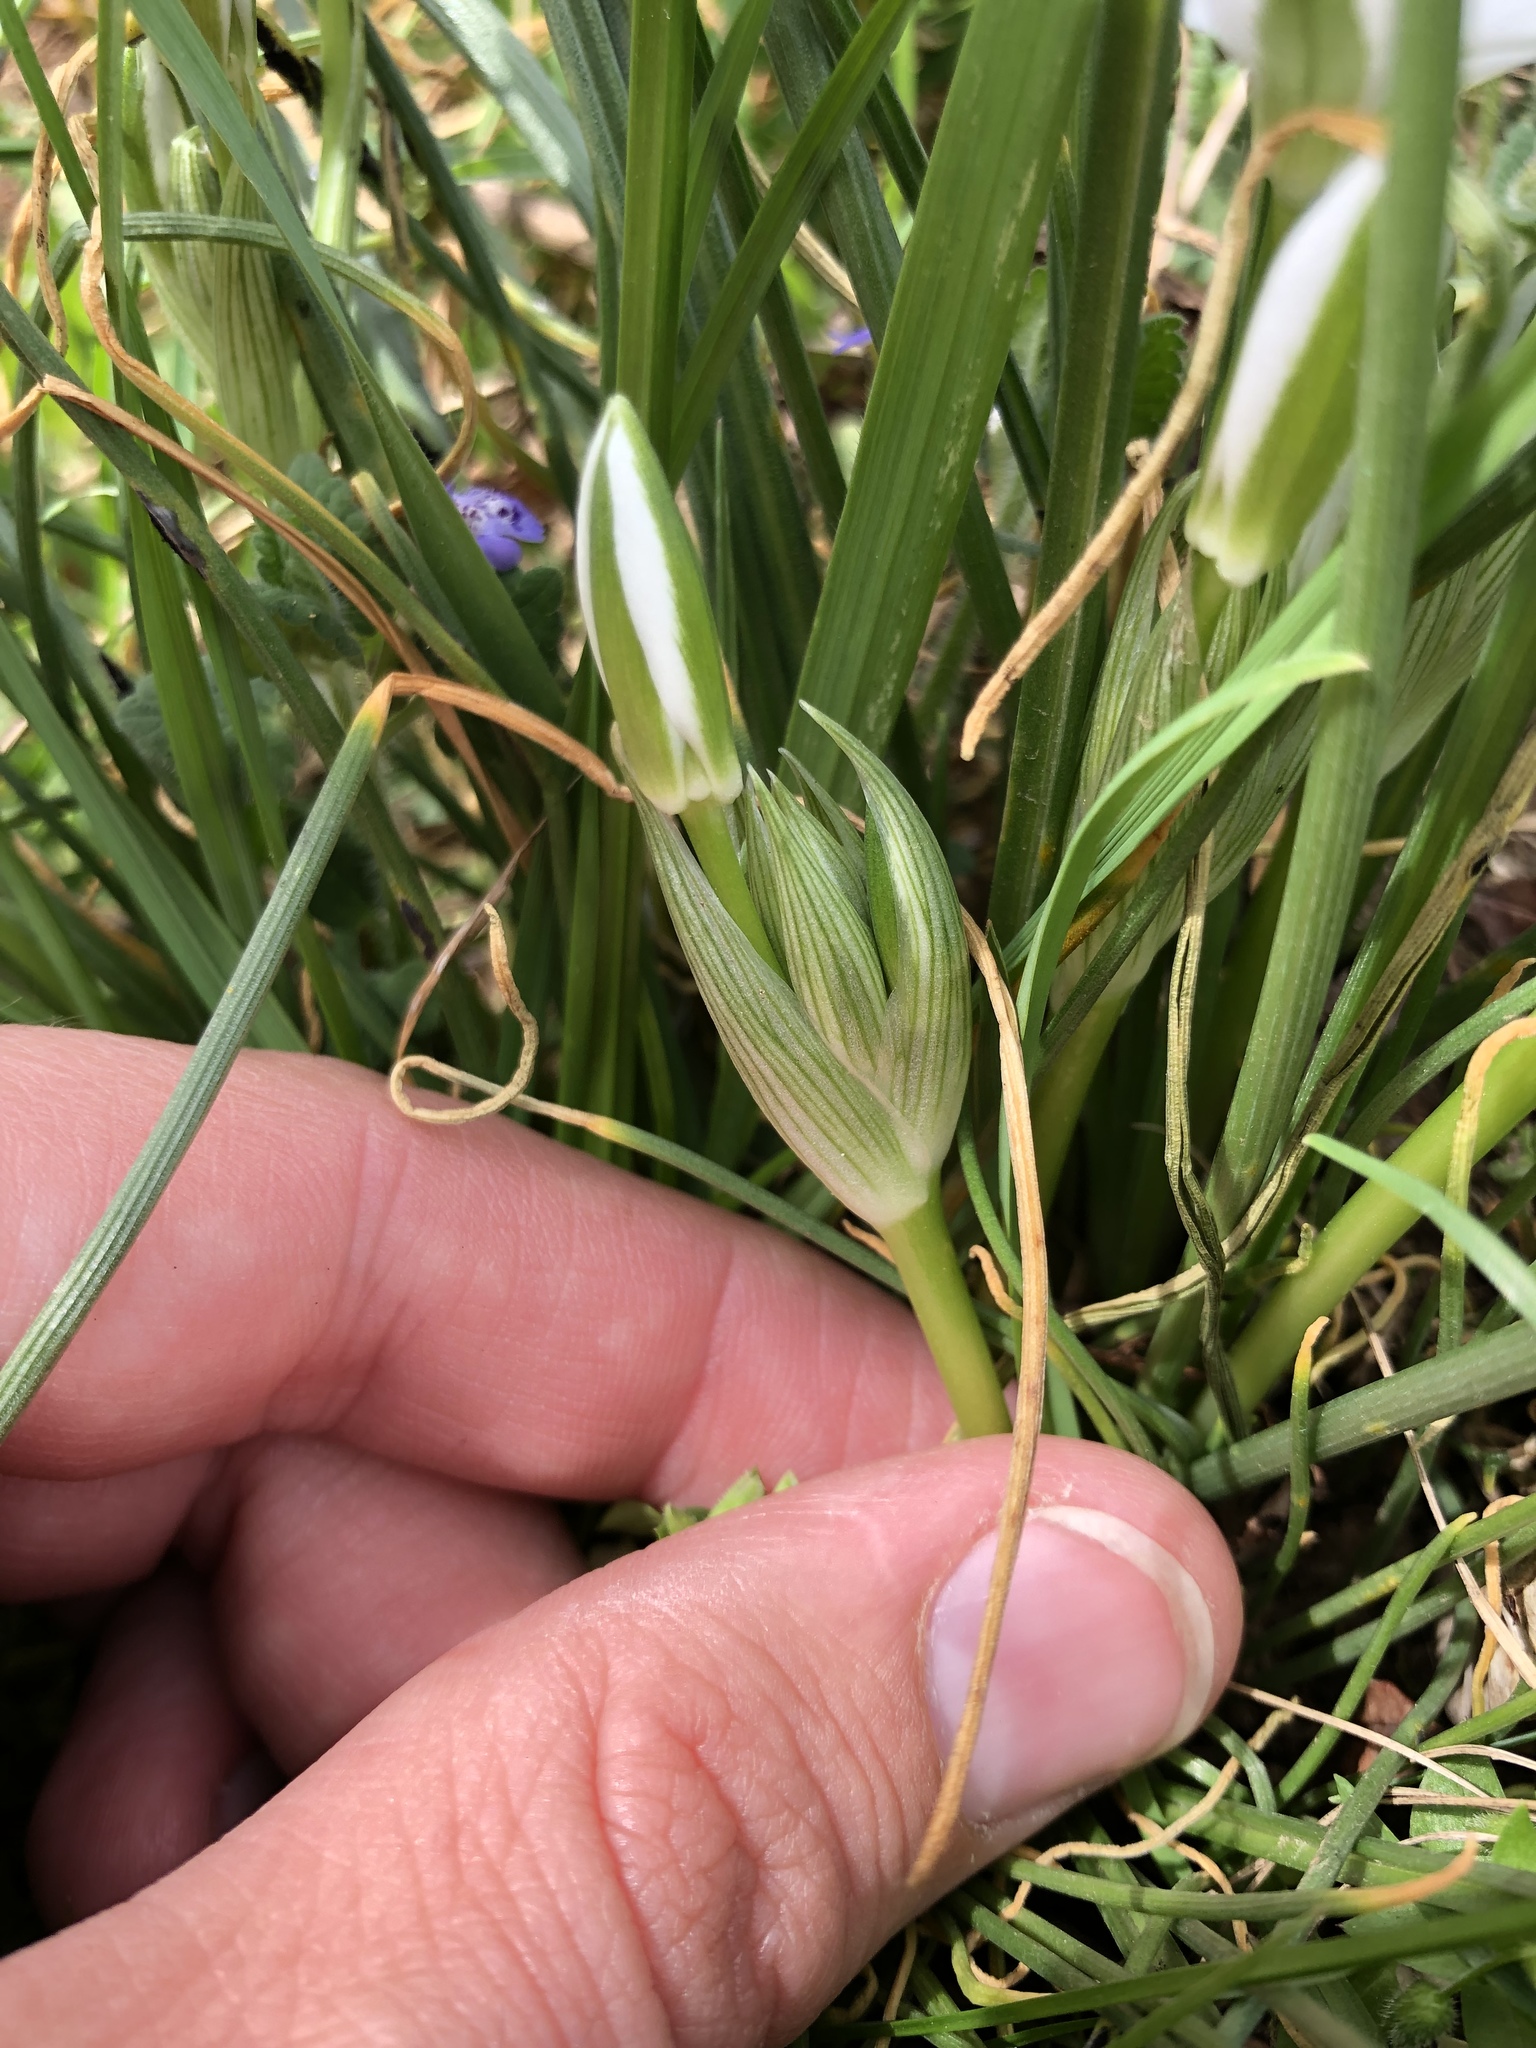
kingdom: Plantae
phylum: Tracheophyta
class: Liliopsida
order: Asparagales
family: Asparagaceae
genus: Ornithogalum
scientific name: Ornithogalum umbellatum
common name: Garden star-of-bethlehem
